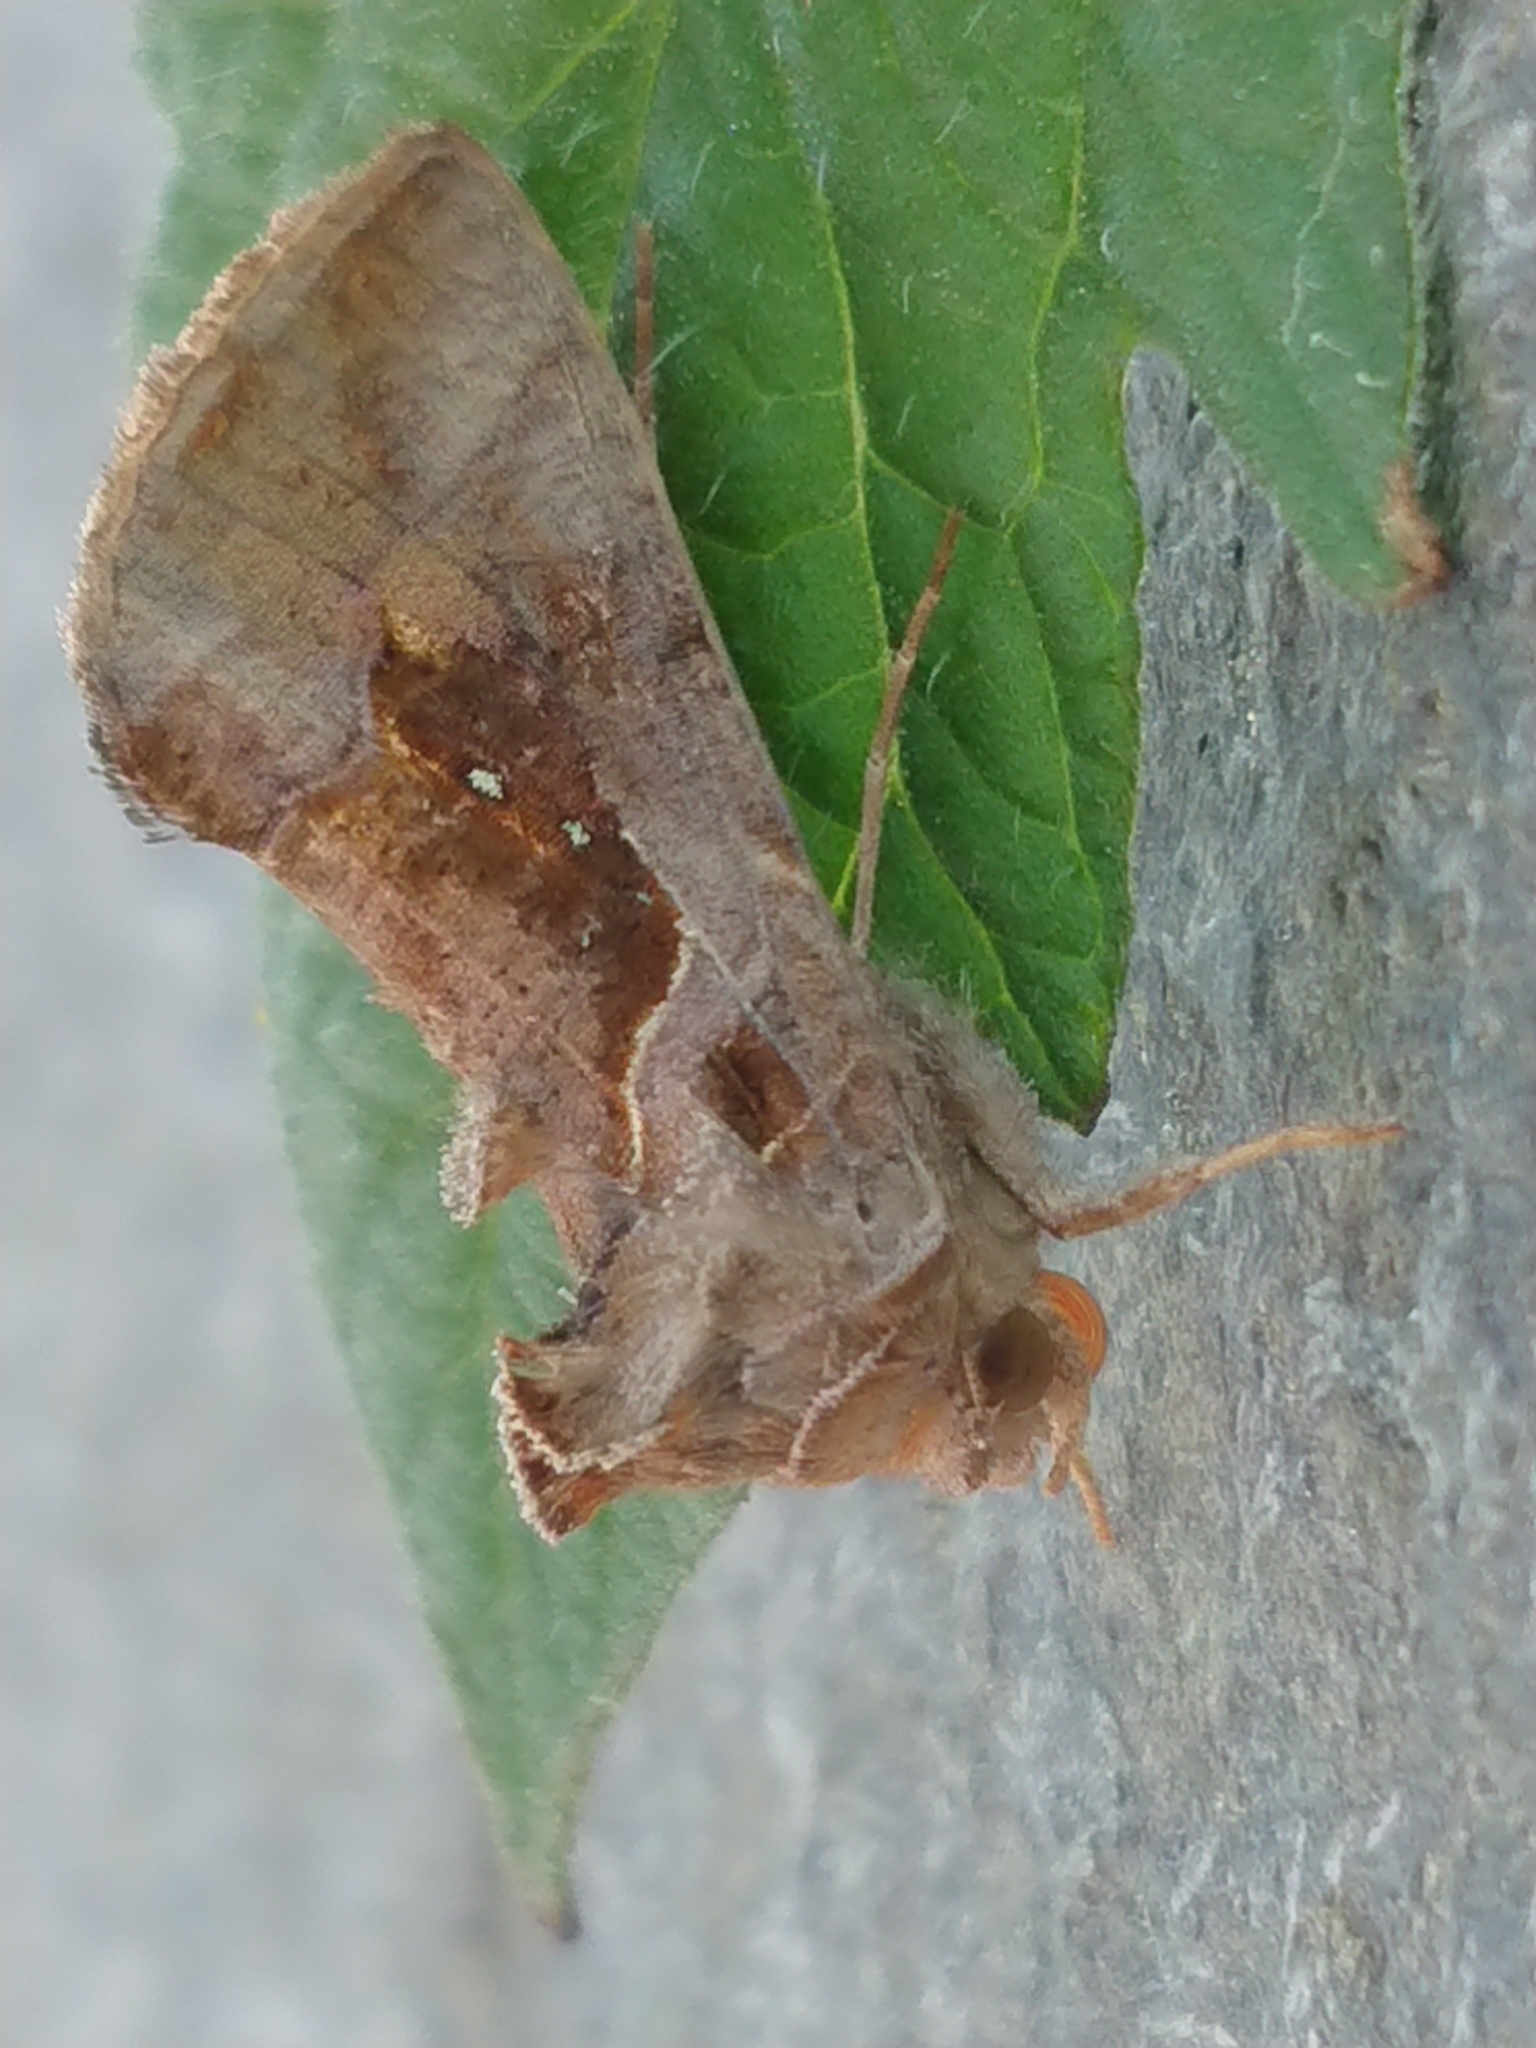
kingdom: Animalia
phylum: Arthropoda
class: Insecta
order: Lepidoptera
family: Noctuidae
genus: Chrysodeixis
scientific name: Chrysodeixis eriosoma
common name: Green garden looper
